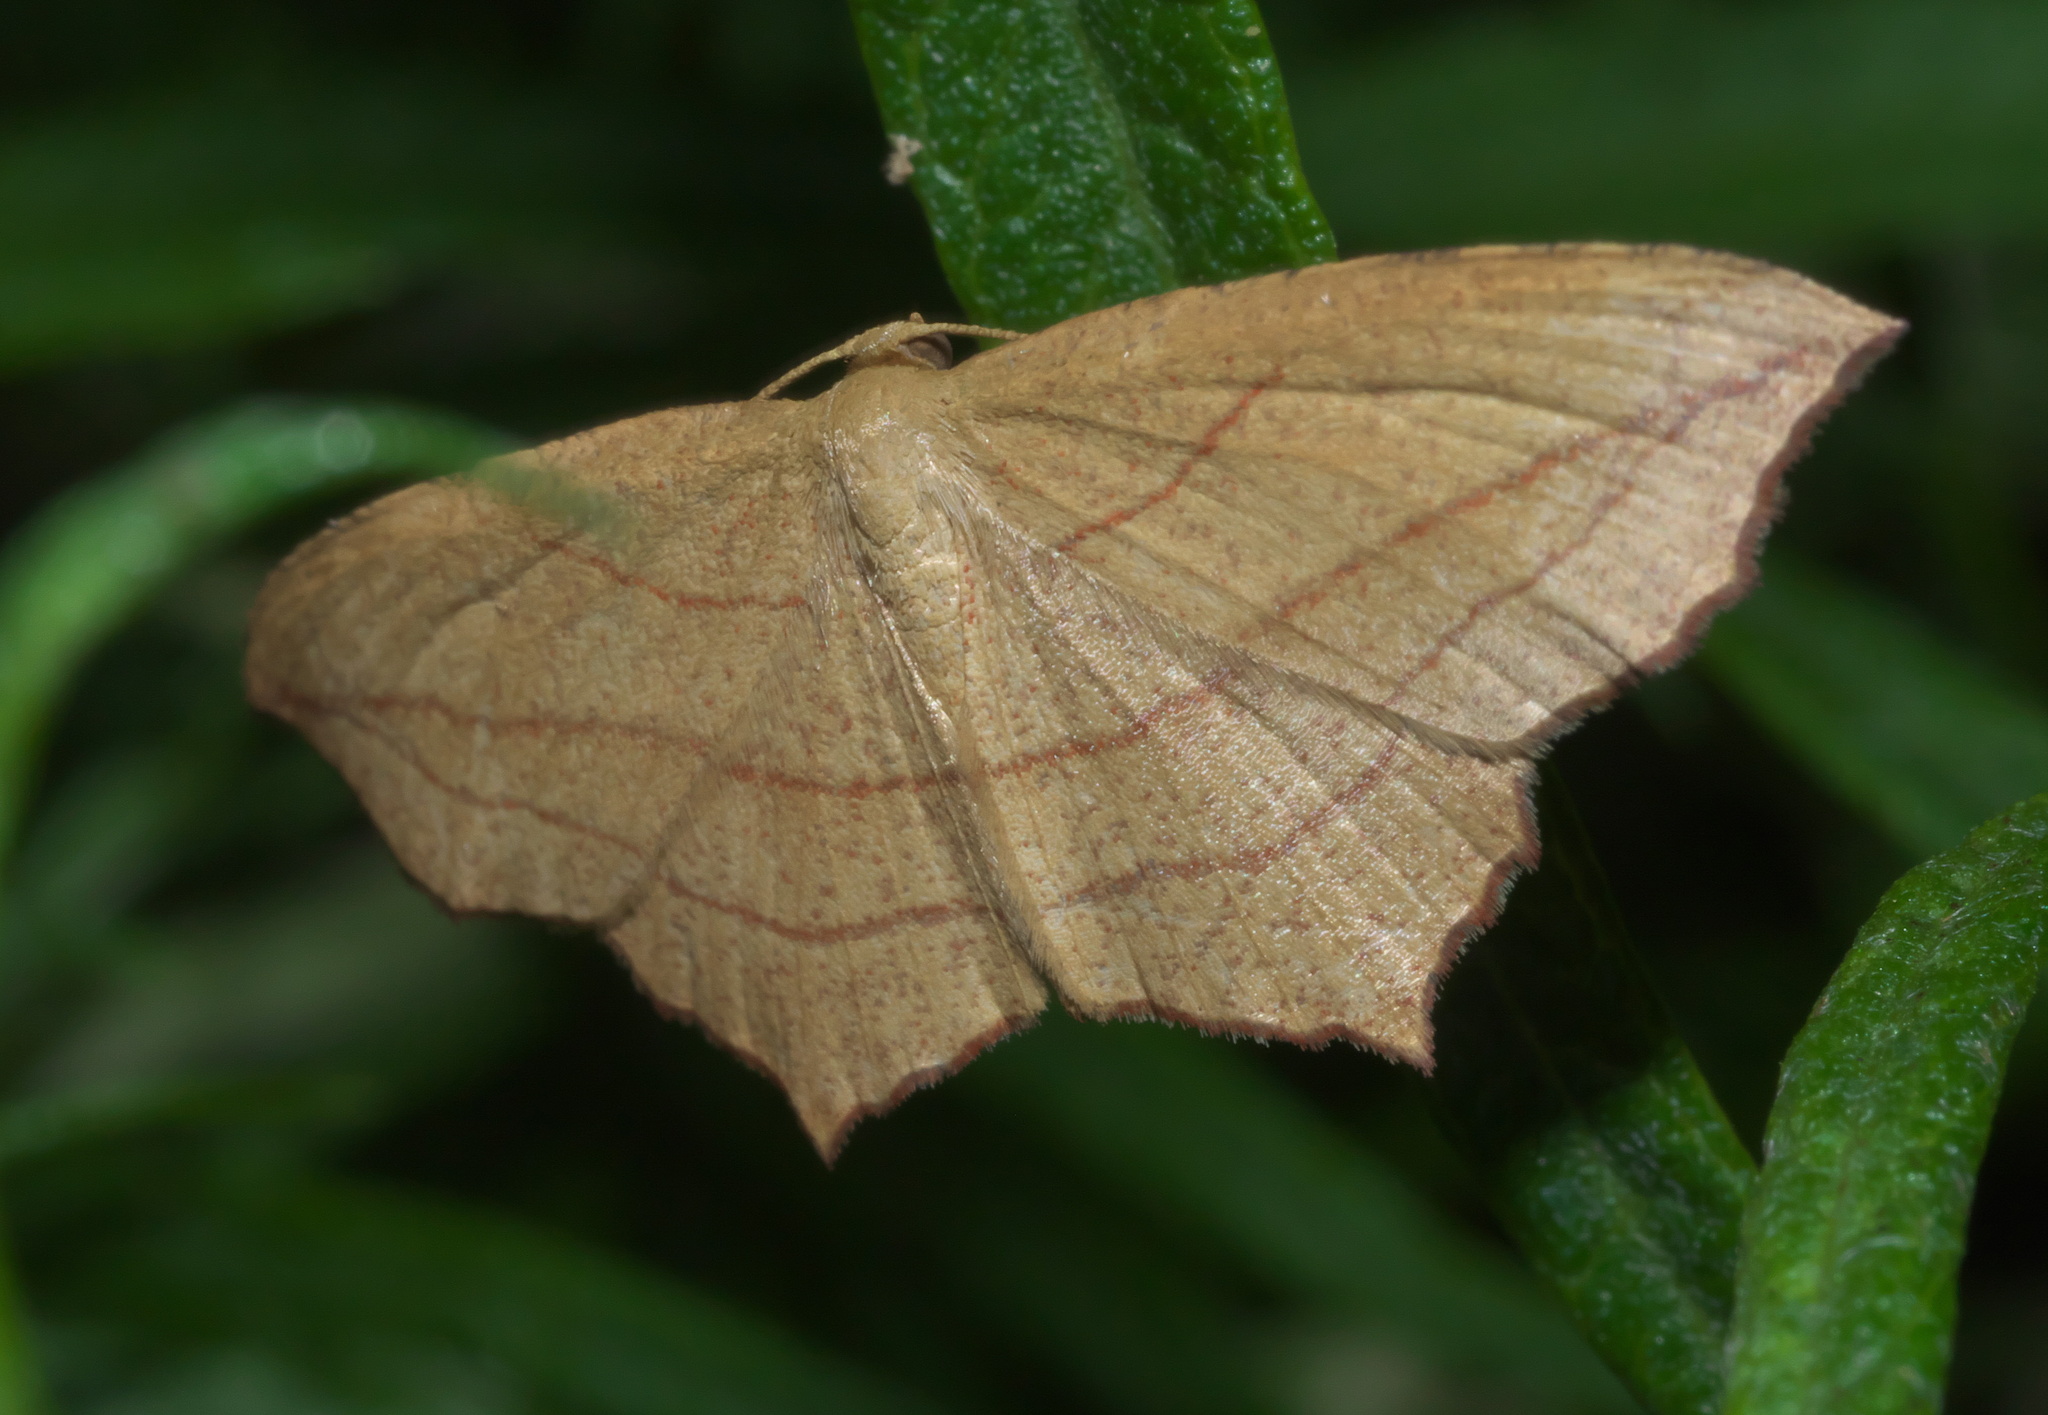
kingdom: Animalia
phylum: Arthropoda
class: Insecta
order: Lepidoptera
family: Geometridae
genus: Timandra
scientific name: Timandra amaturaria
